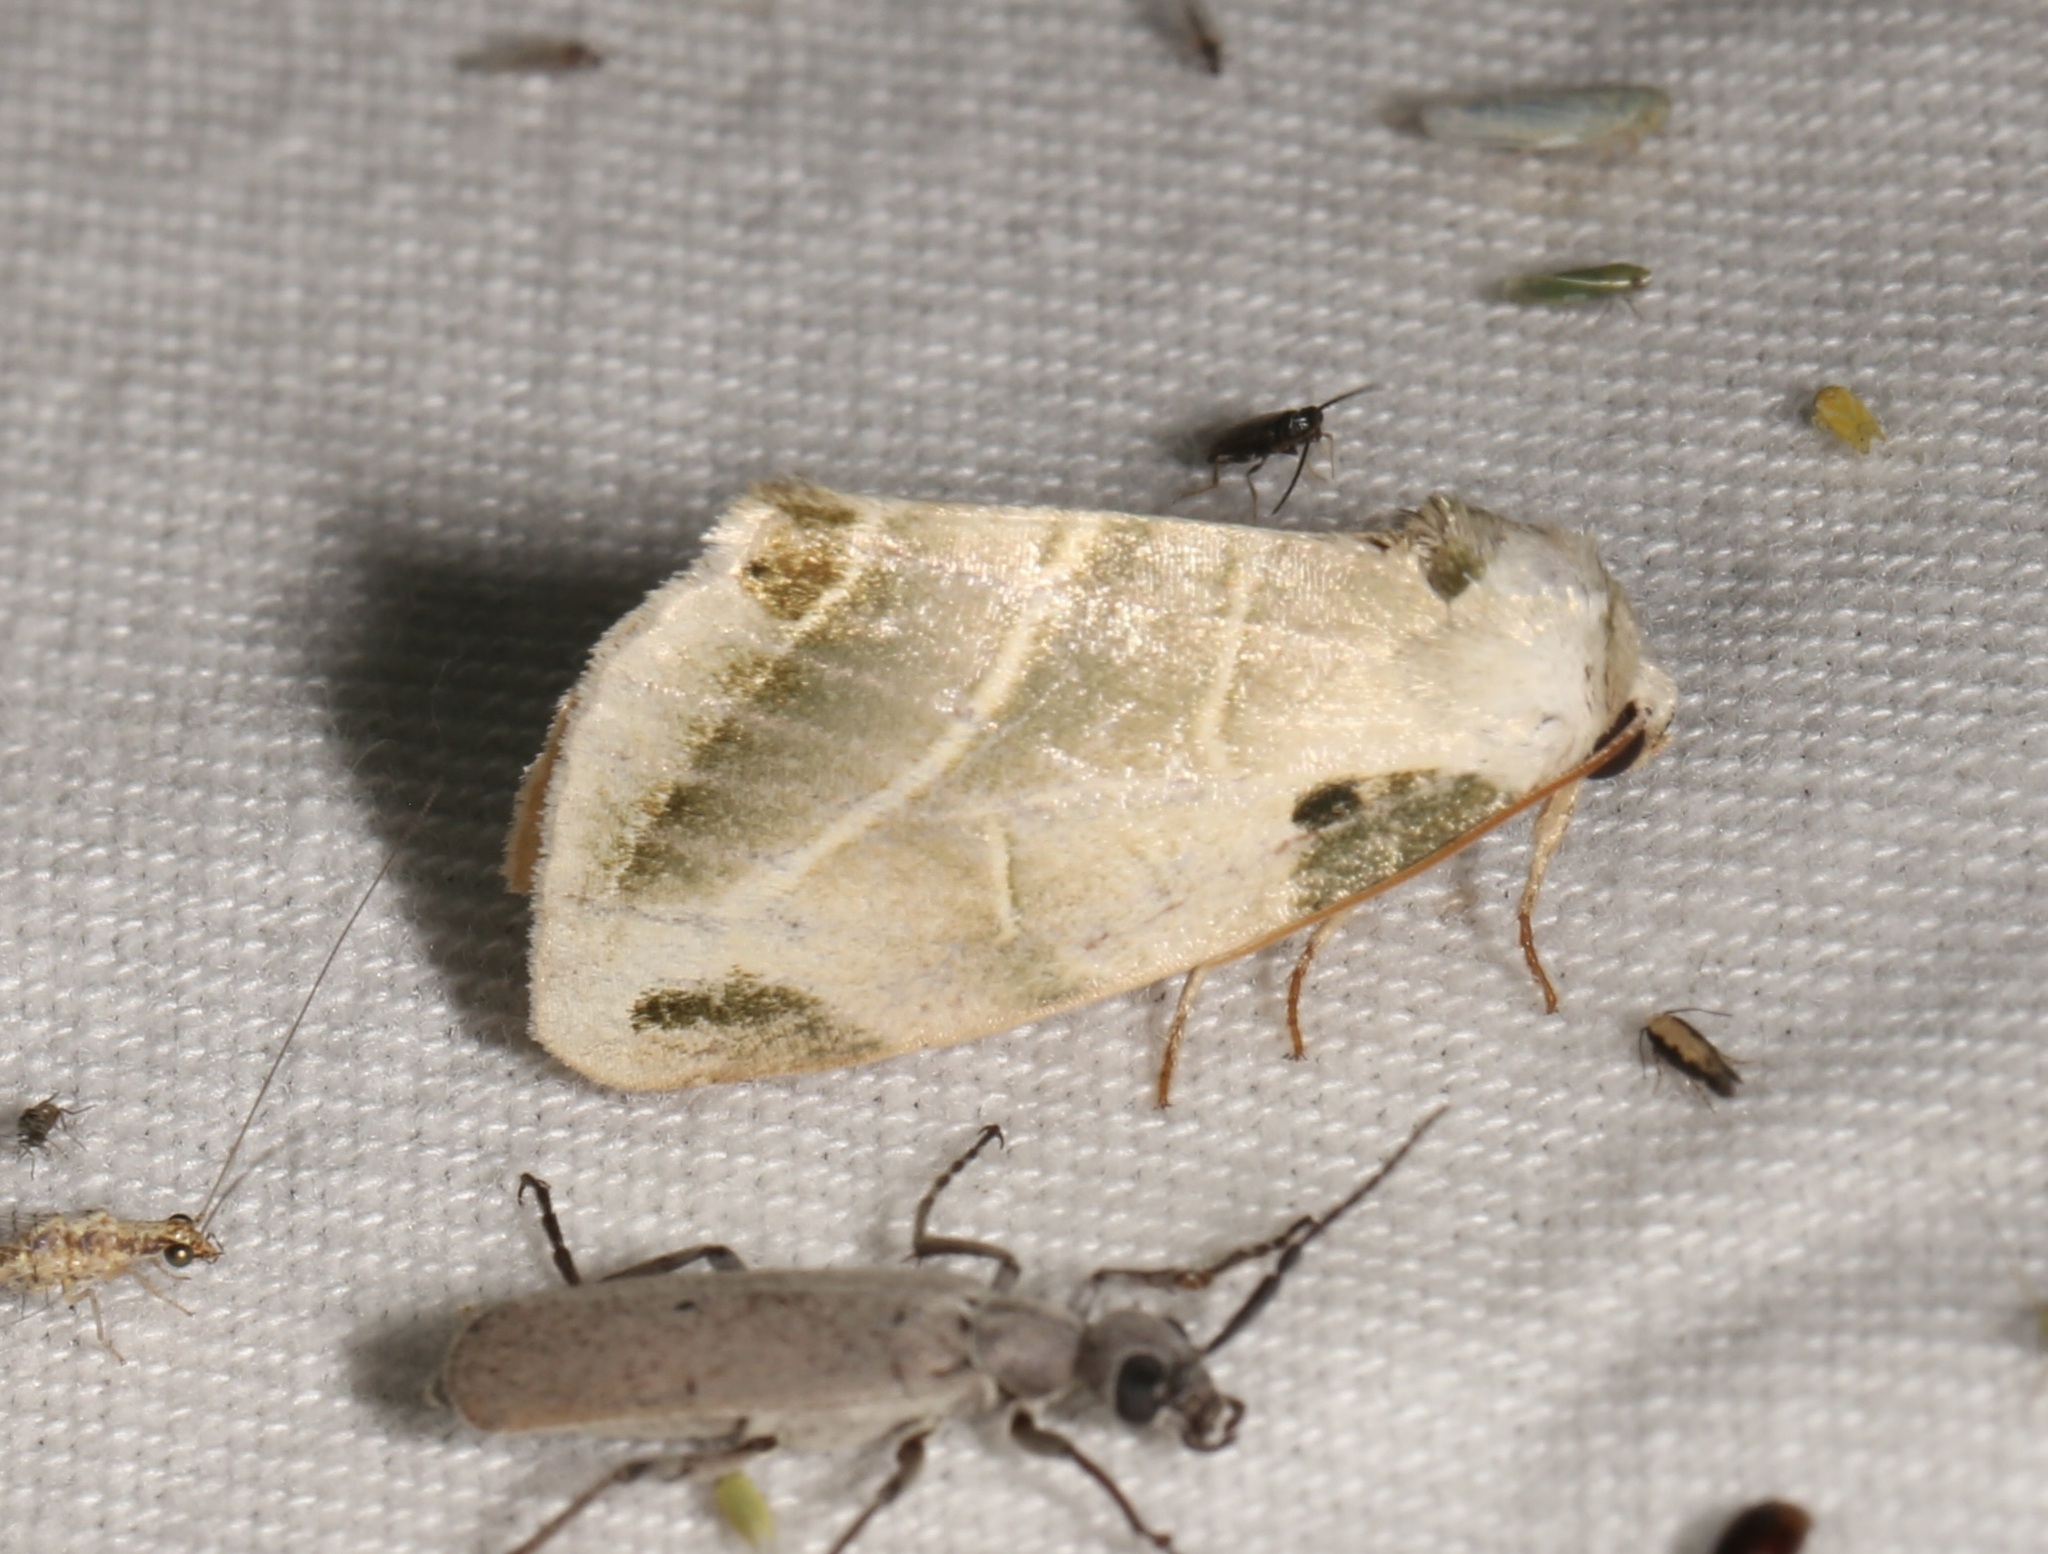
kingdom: Animalia
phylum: Arthropoda
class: Insecta
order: Lepidoptera
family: Noctuidae
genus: Heminocloa
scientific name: Heminocloa mirabilis
